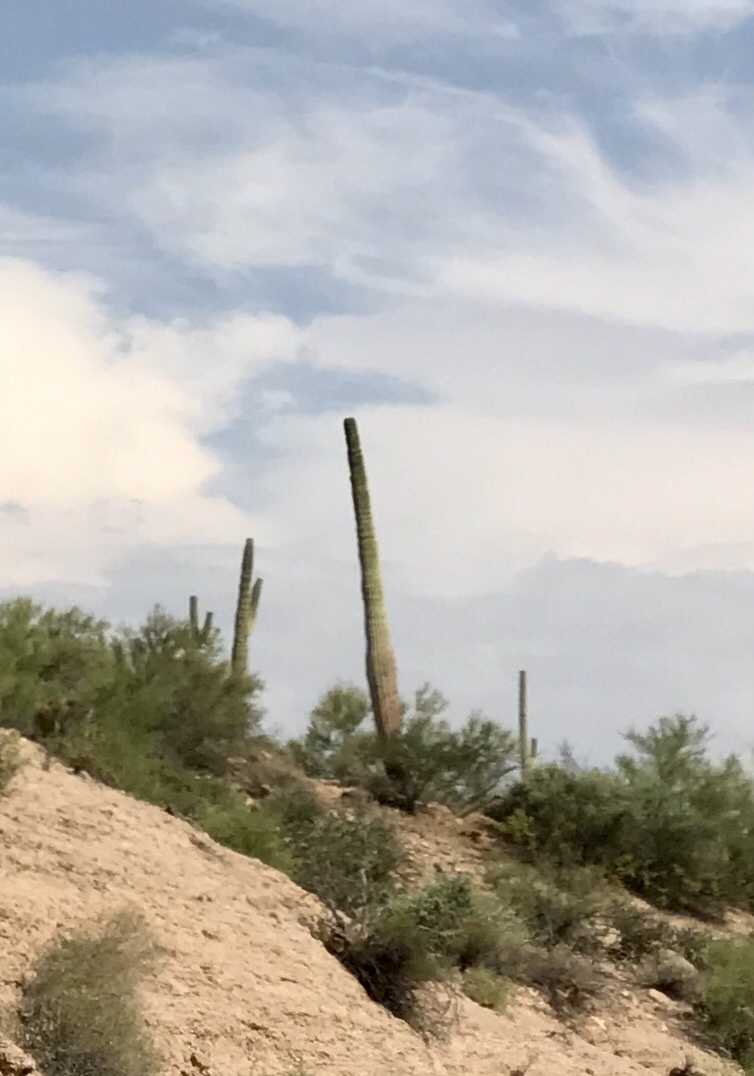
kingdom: Plantae
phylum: Tracheophyta
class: Magnoliopsida
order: Caryophyllales
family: Cactaceae
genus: Carnegiea
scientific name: Carnegiea gigantea
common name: Saguaro
